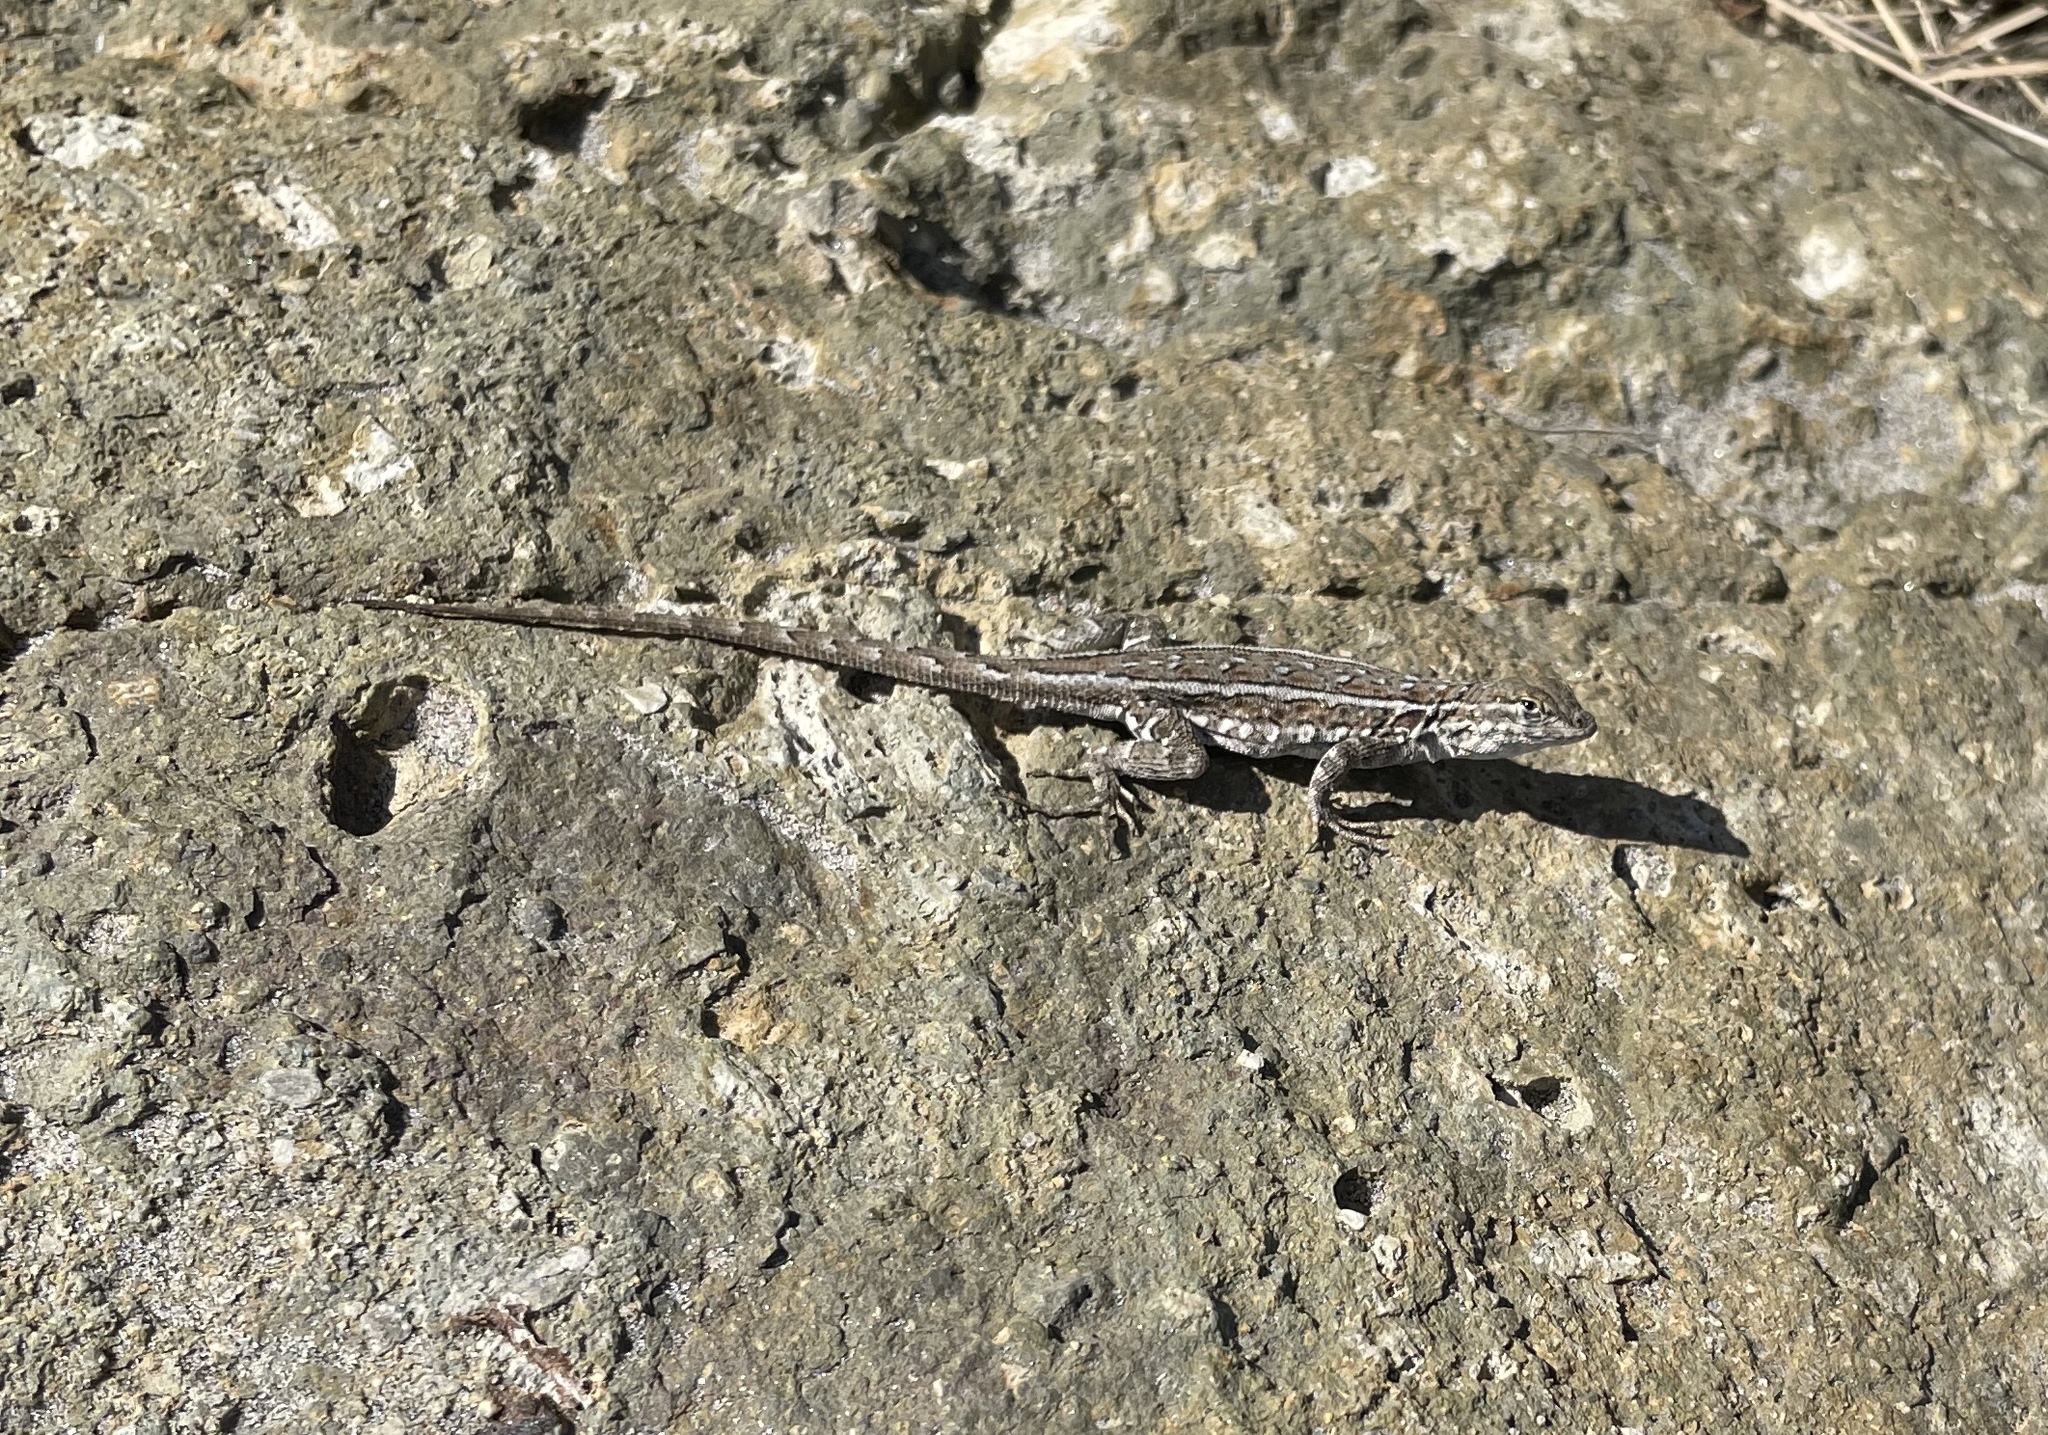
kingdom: Animalia
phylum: Chordata
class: Squamata
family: Phrynosomatidae
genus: Uta
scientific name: Uta stansburiana
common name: Side-blotched lizard
